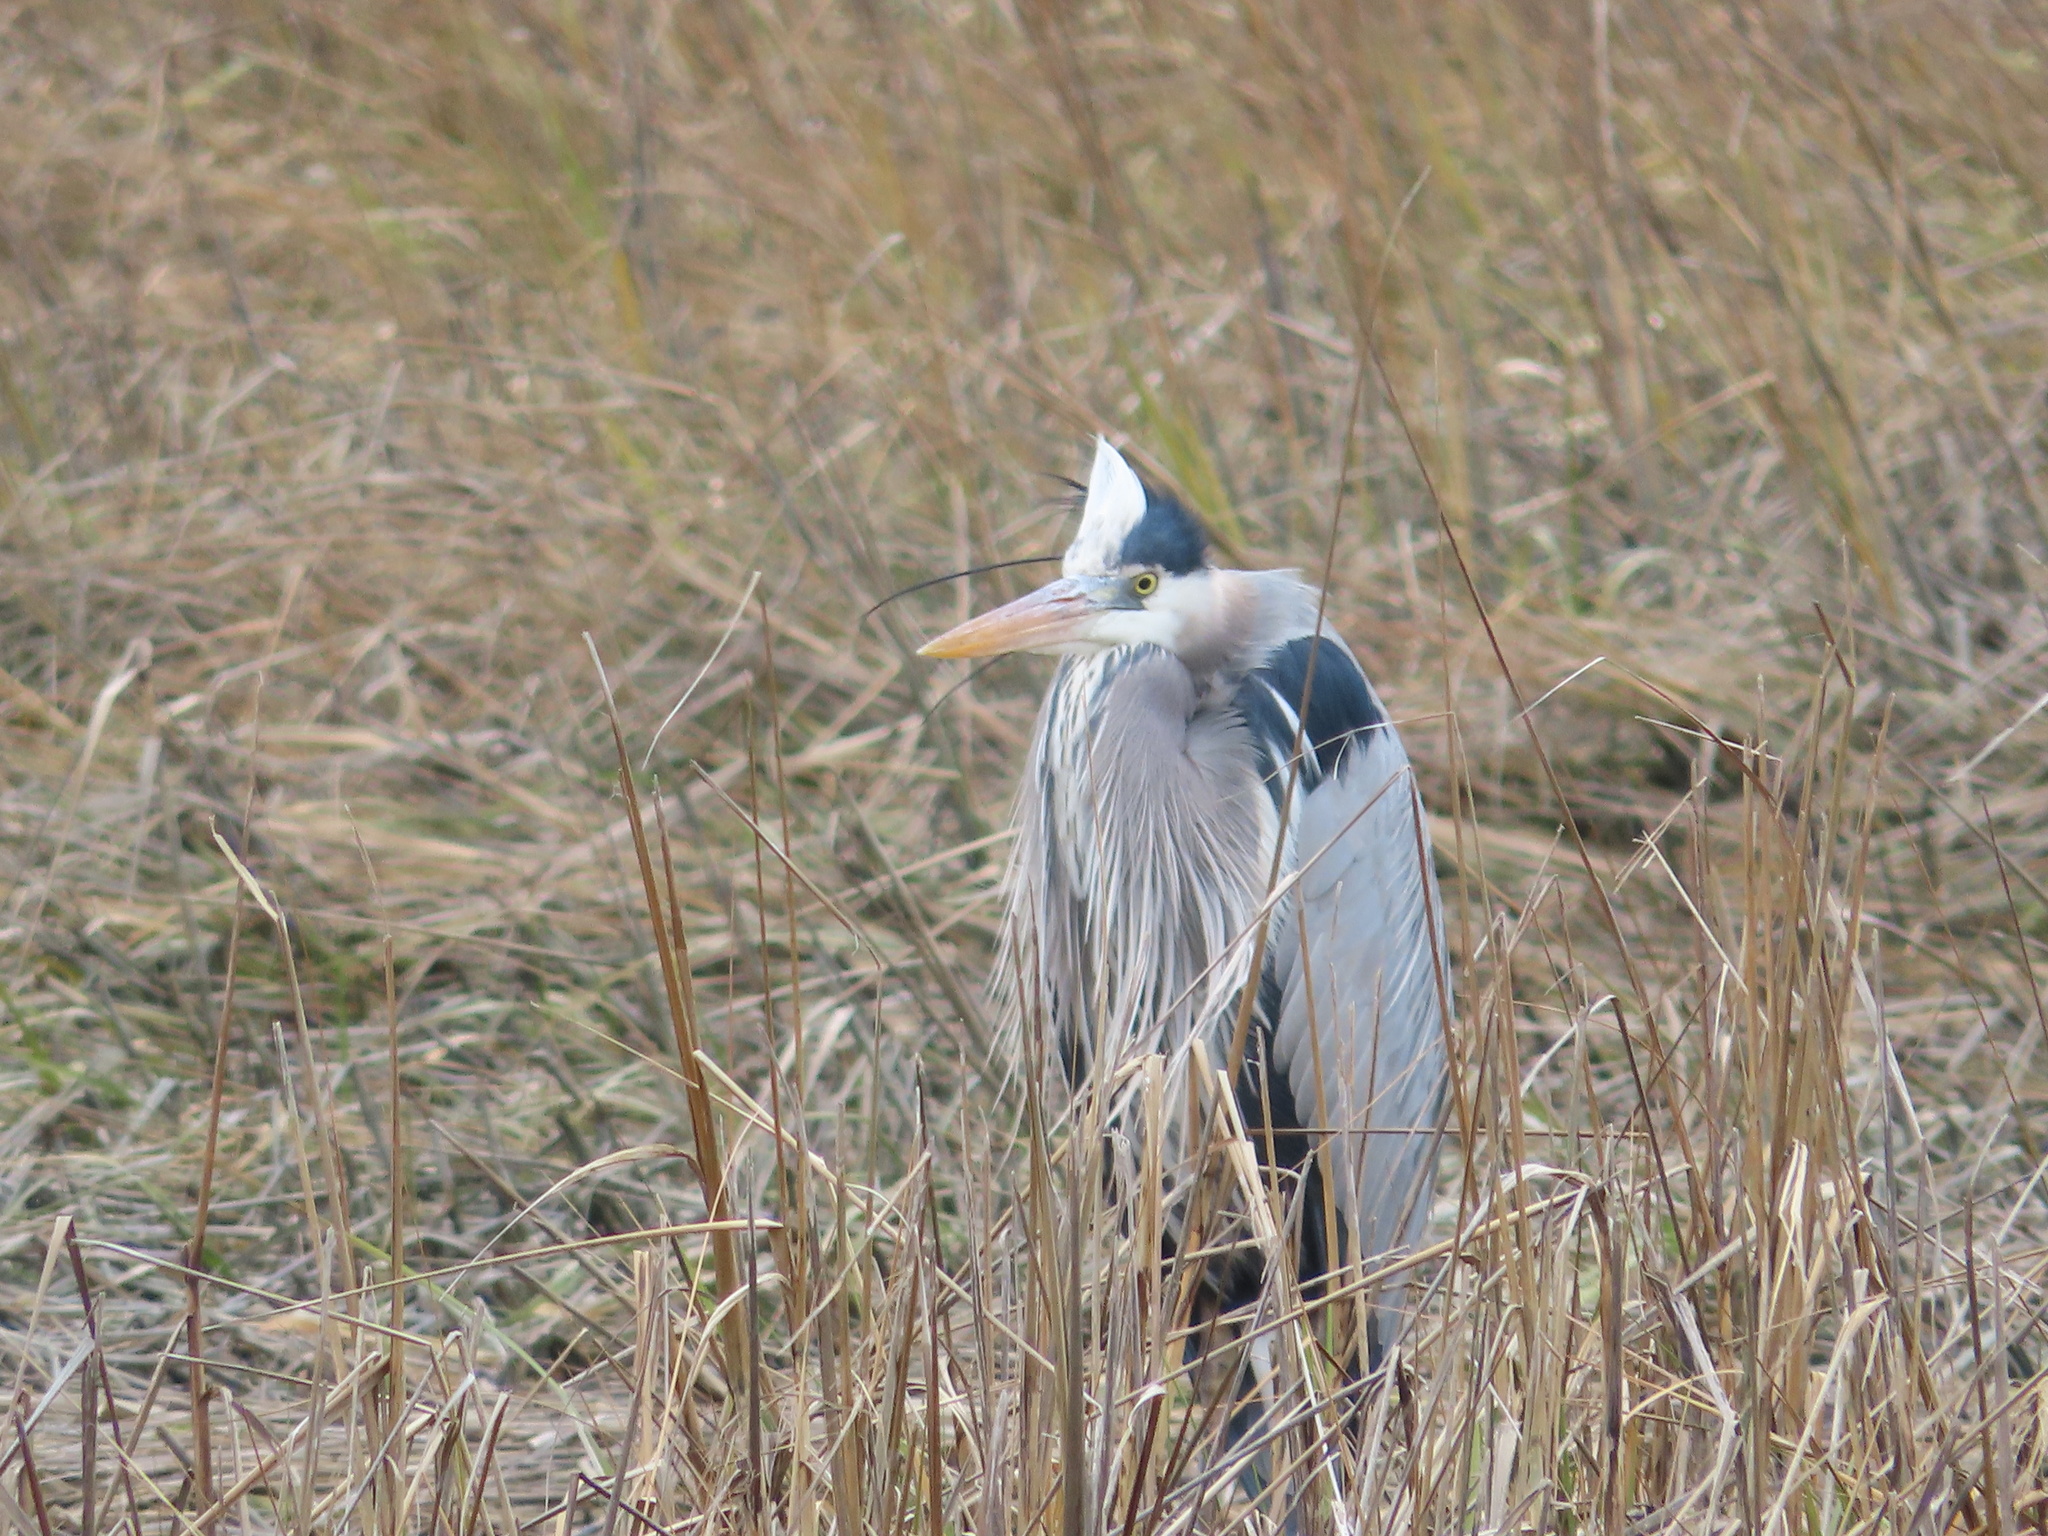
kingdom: Animalia
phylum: Chordata
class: Aves
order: Pelecaniformes
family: Ardeidae
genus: Ardea
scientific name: Ardea herodias
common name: Great blue heron
